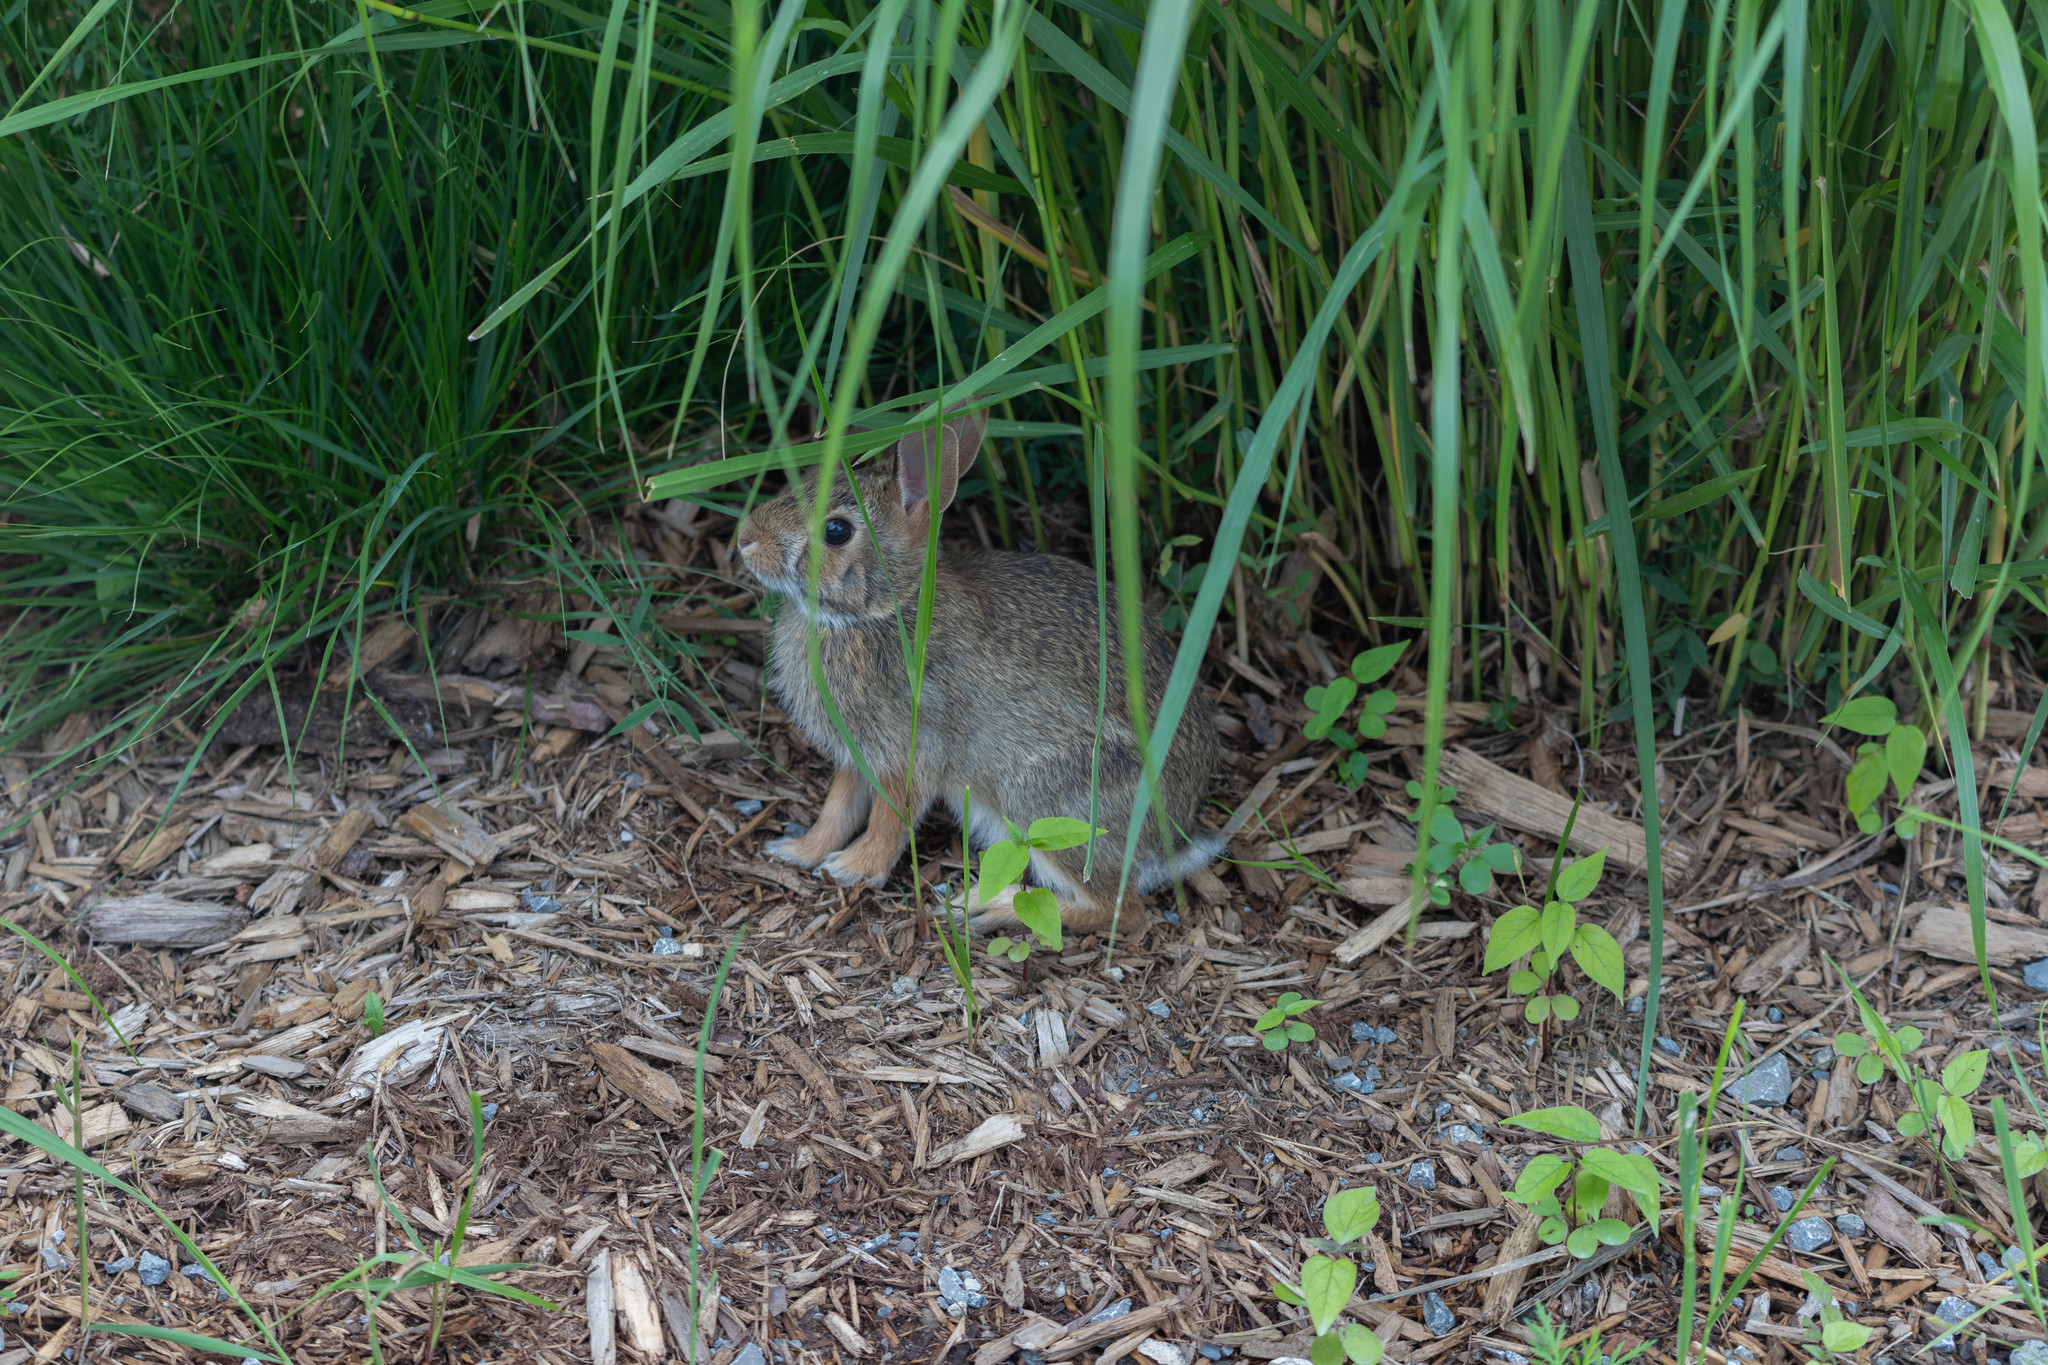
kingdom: Animalia
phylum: Chordata
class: Mammalia
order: Lagomorpha
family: Leporidae
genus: Sylvilagus
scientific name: Sylvilagus floridanus
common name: Eastern cottontail
